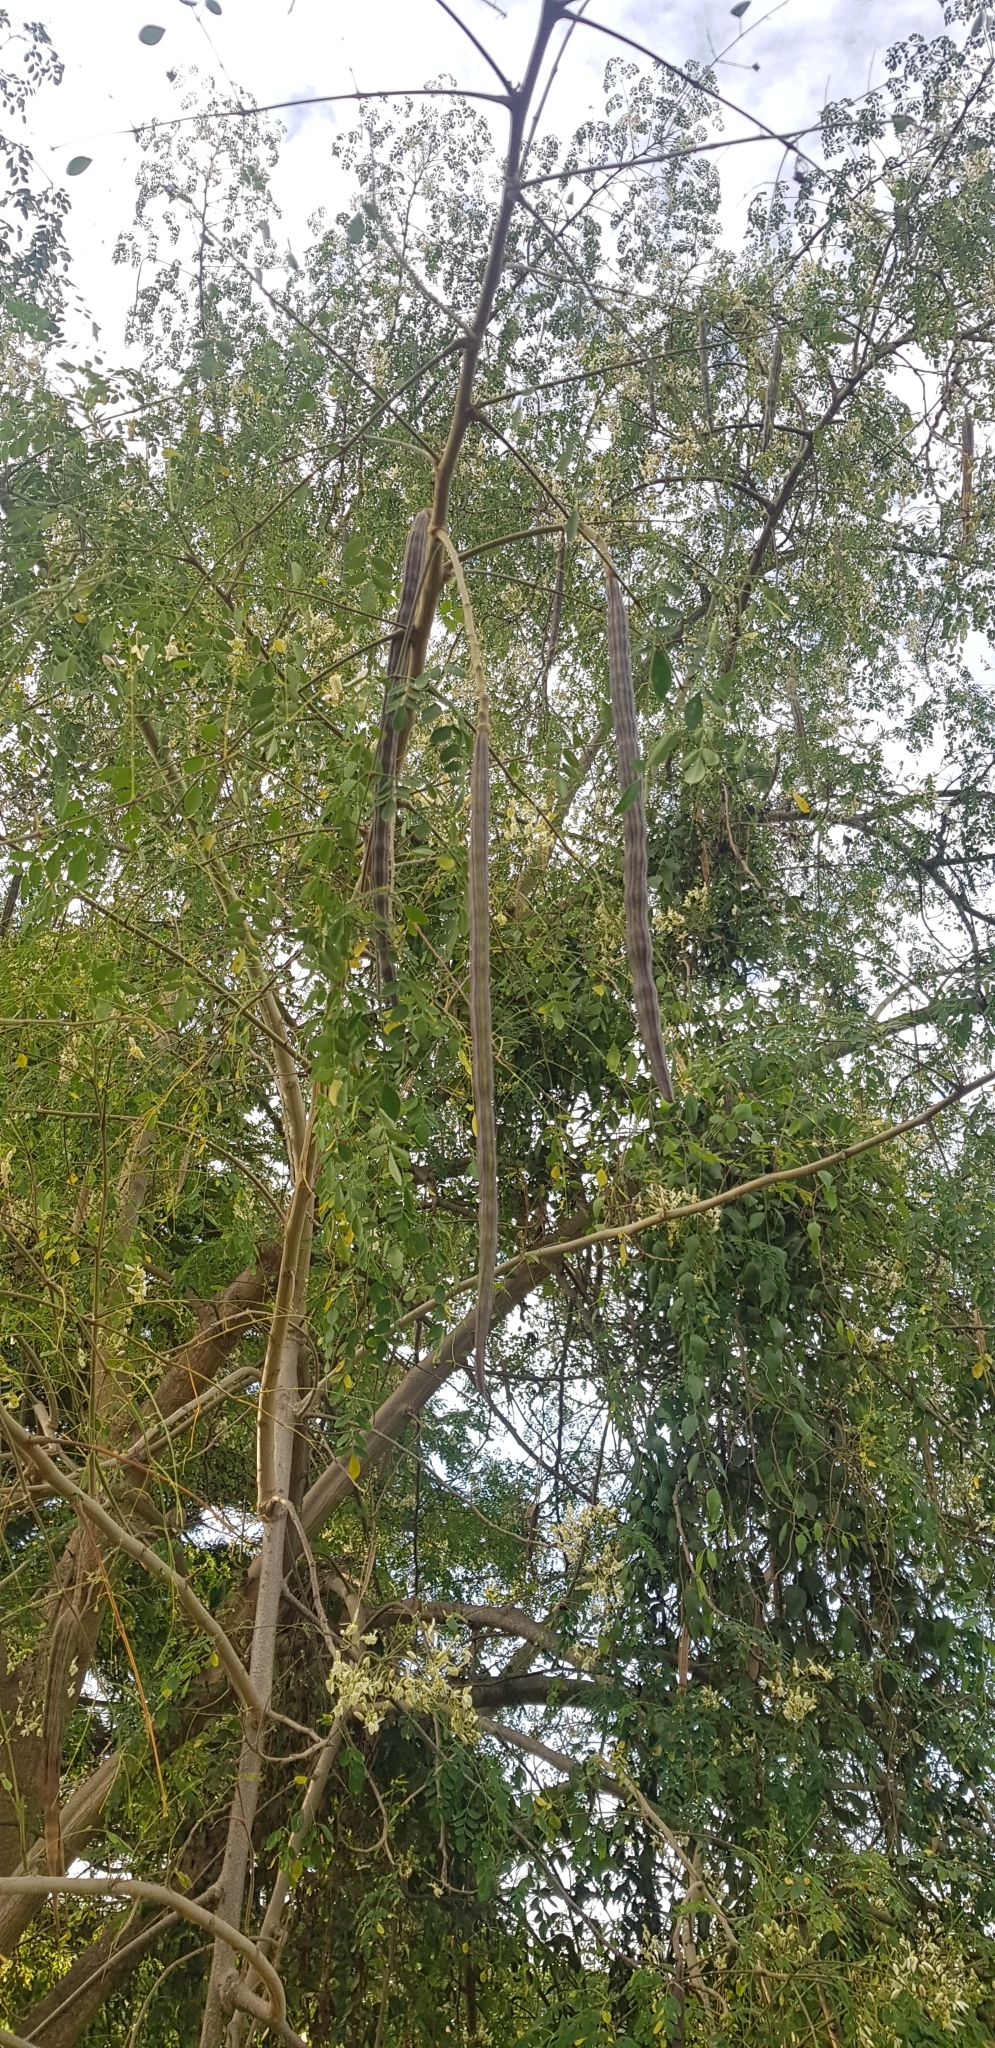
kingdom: Plantae
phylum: Tracheophyta
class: Magnoliopsida
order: Brassicales
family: Moringaceae
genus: Moringa
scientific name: Moringa oleifera
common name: Horseradish-tree
